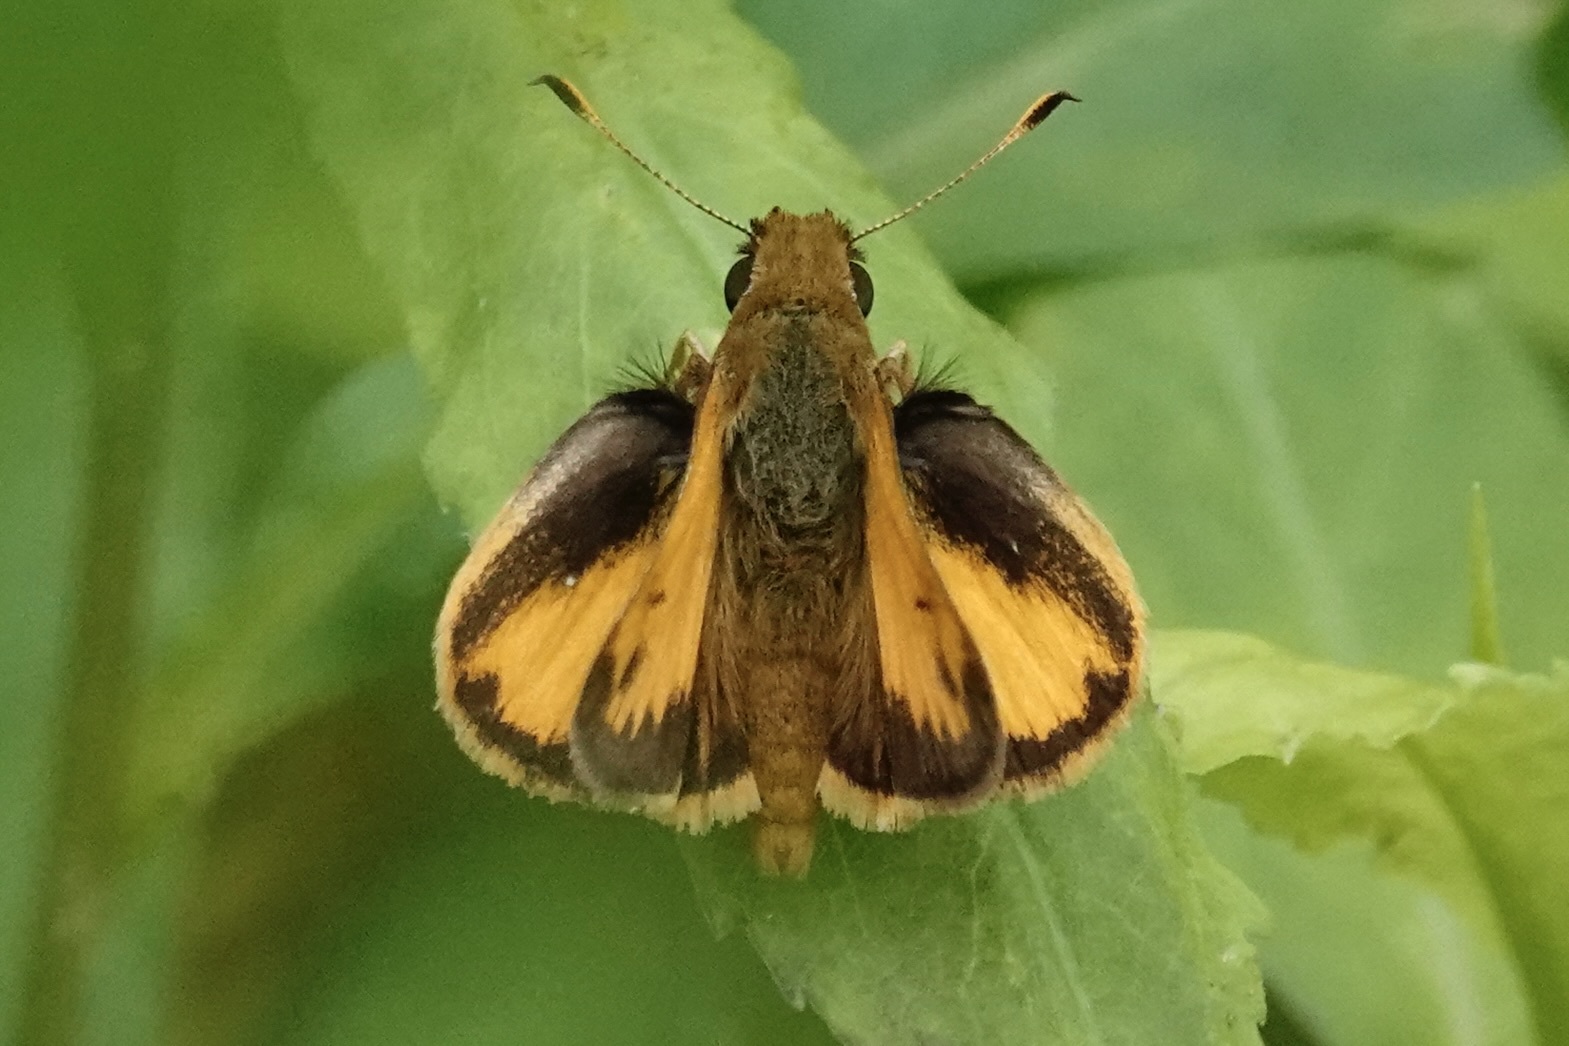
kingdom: Animalia
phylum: Arthropoda
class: Insecta
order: Lepidoptera
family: Hesperiidae
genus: Lon
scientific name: Lon zabulon
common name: Zabulon skipper
